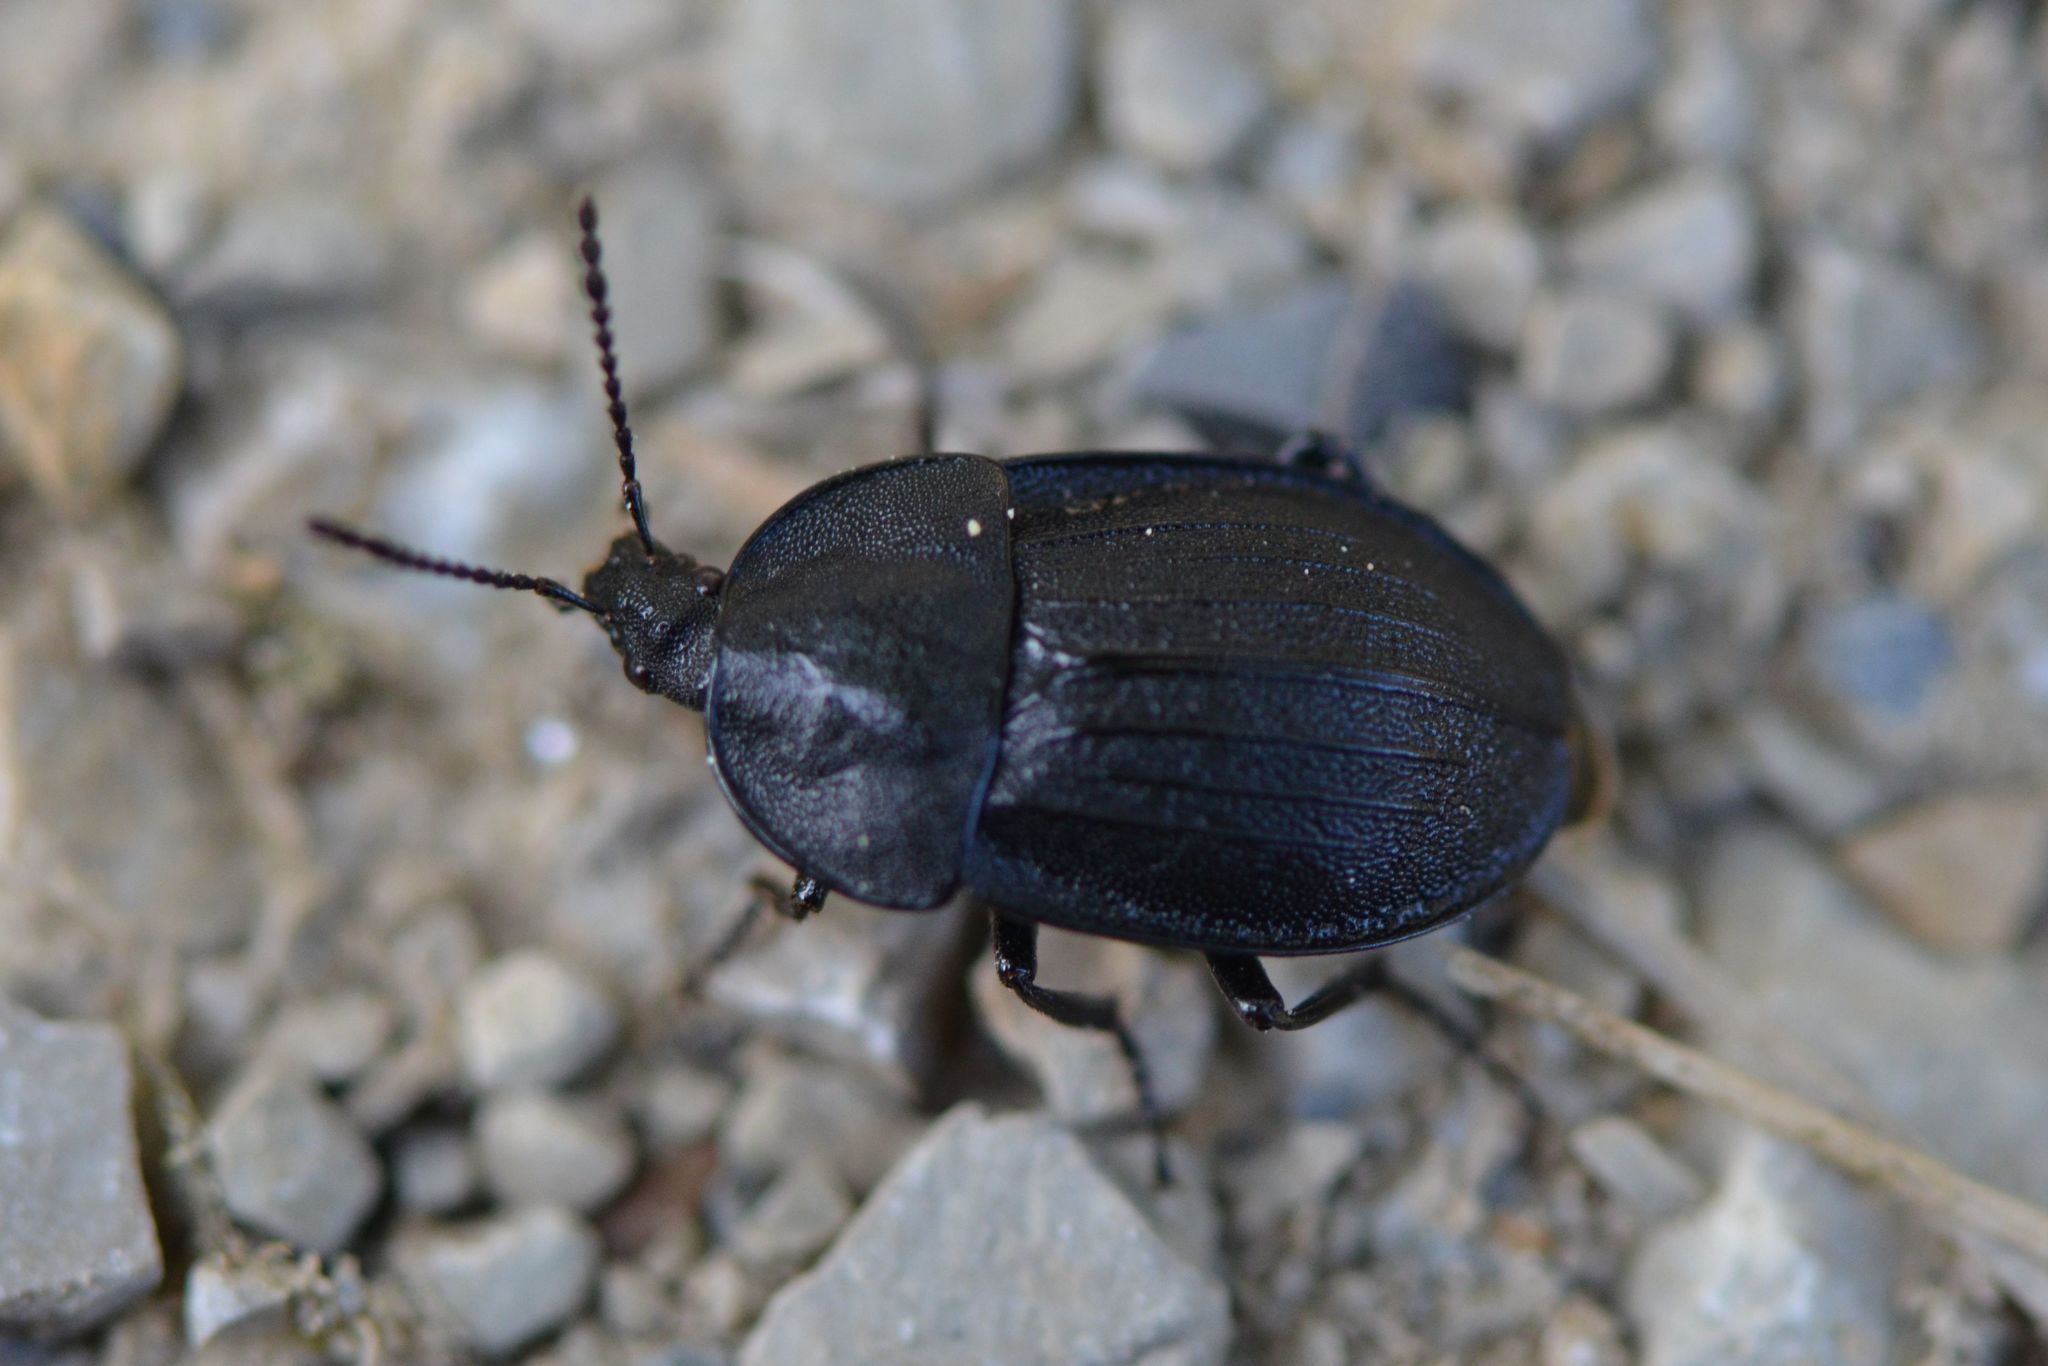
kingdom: Animalia
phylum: Arthropoda
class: Insecta
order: Coleoptera
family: Staphylinidae
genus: Silpha
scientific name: Silpha atrata
